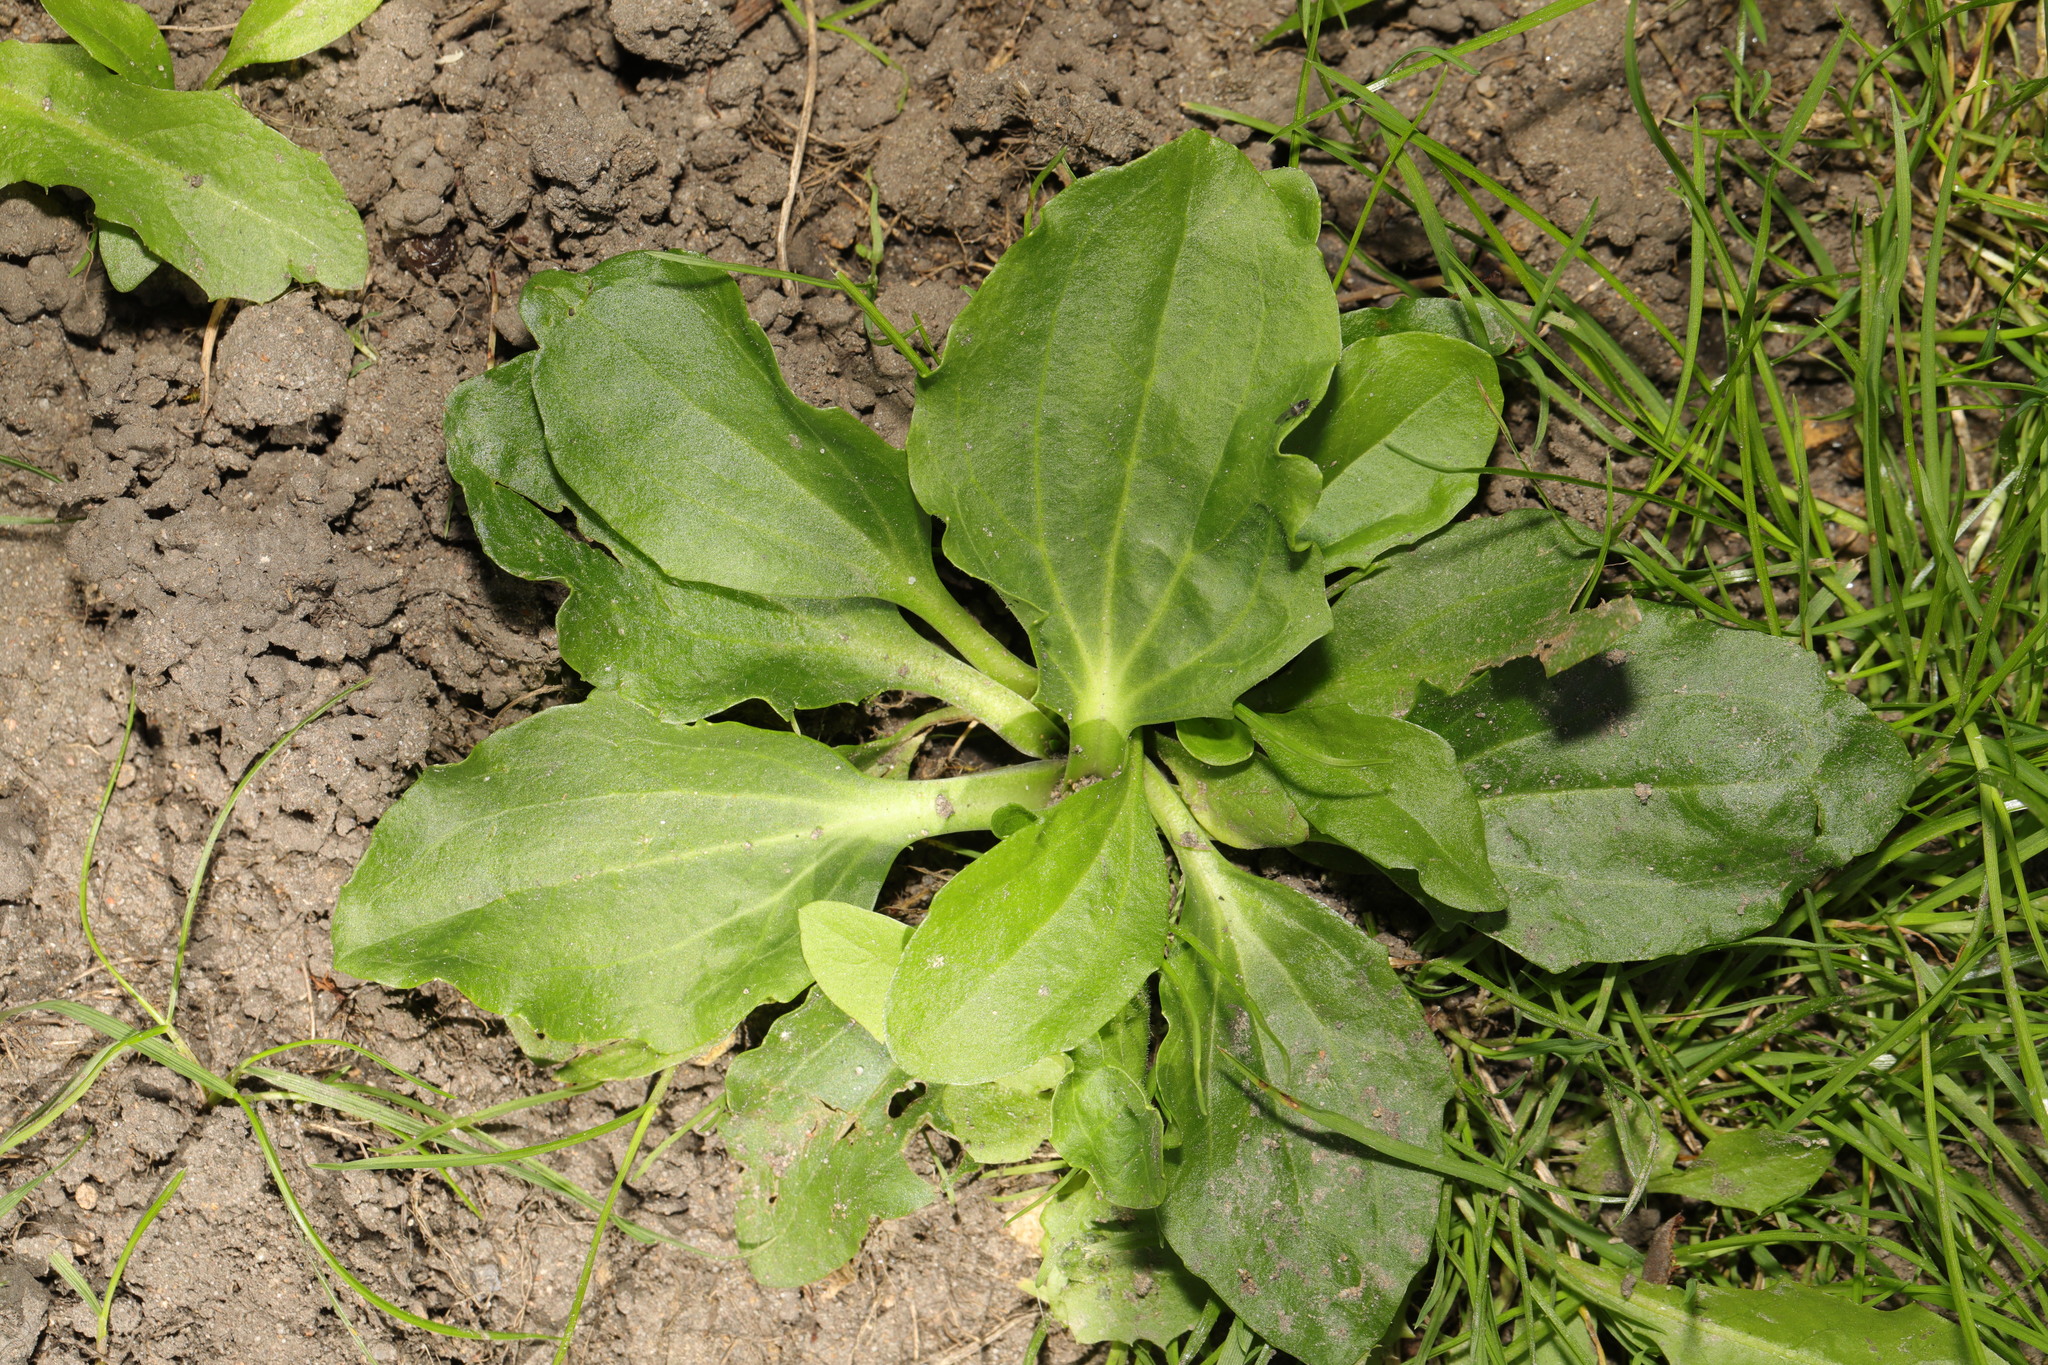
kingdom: Plantae
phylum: Tracheophyta
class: Magnoliopsida
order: Lamiales
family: Plantaginaceae
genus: Plantago
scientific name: Plantago major
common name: Common plantain
